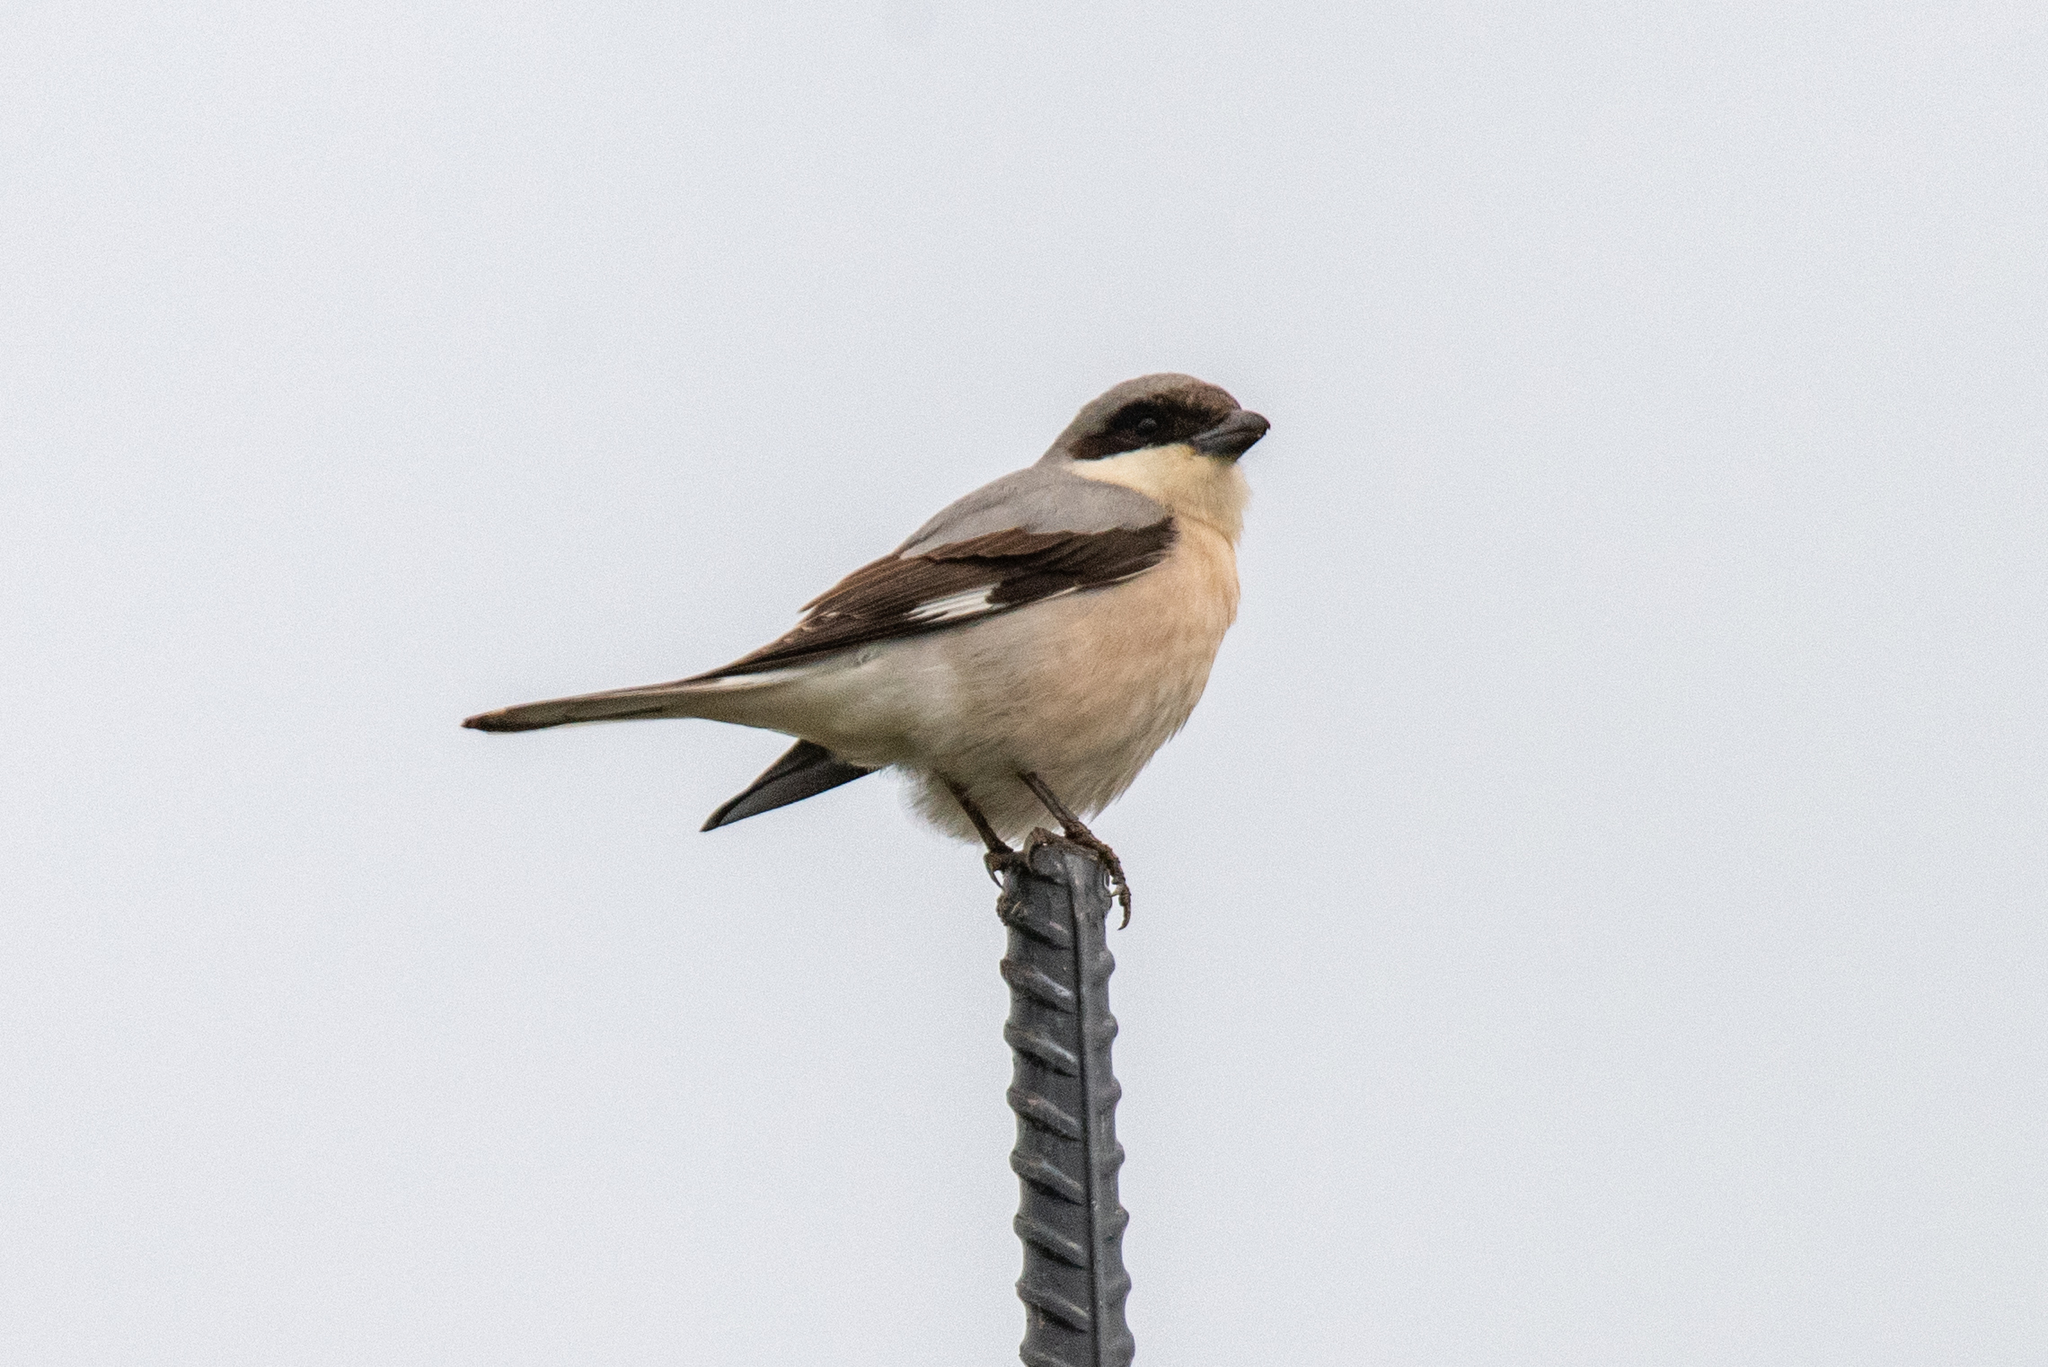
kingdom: Animalia
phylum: Chordata
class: Aves
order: Passeriformes
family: Laniidae
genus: Lanius
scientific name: Lanius minor
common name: Lesser grey shrike
